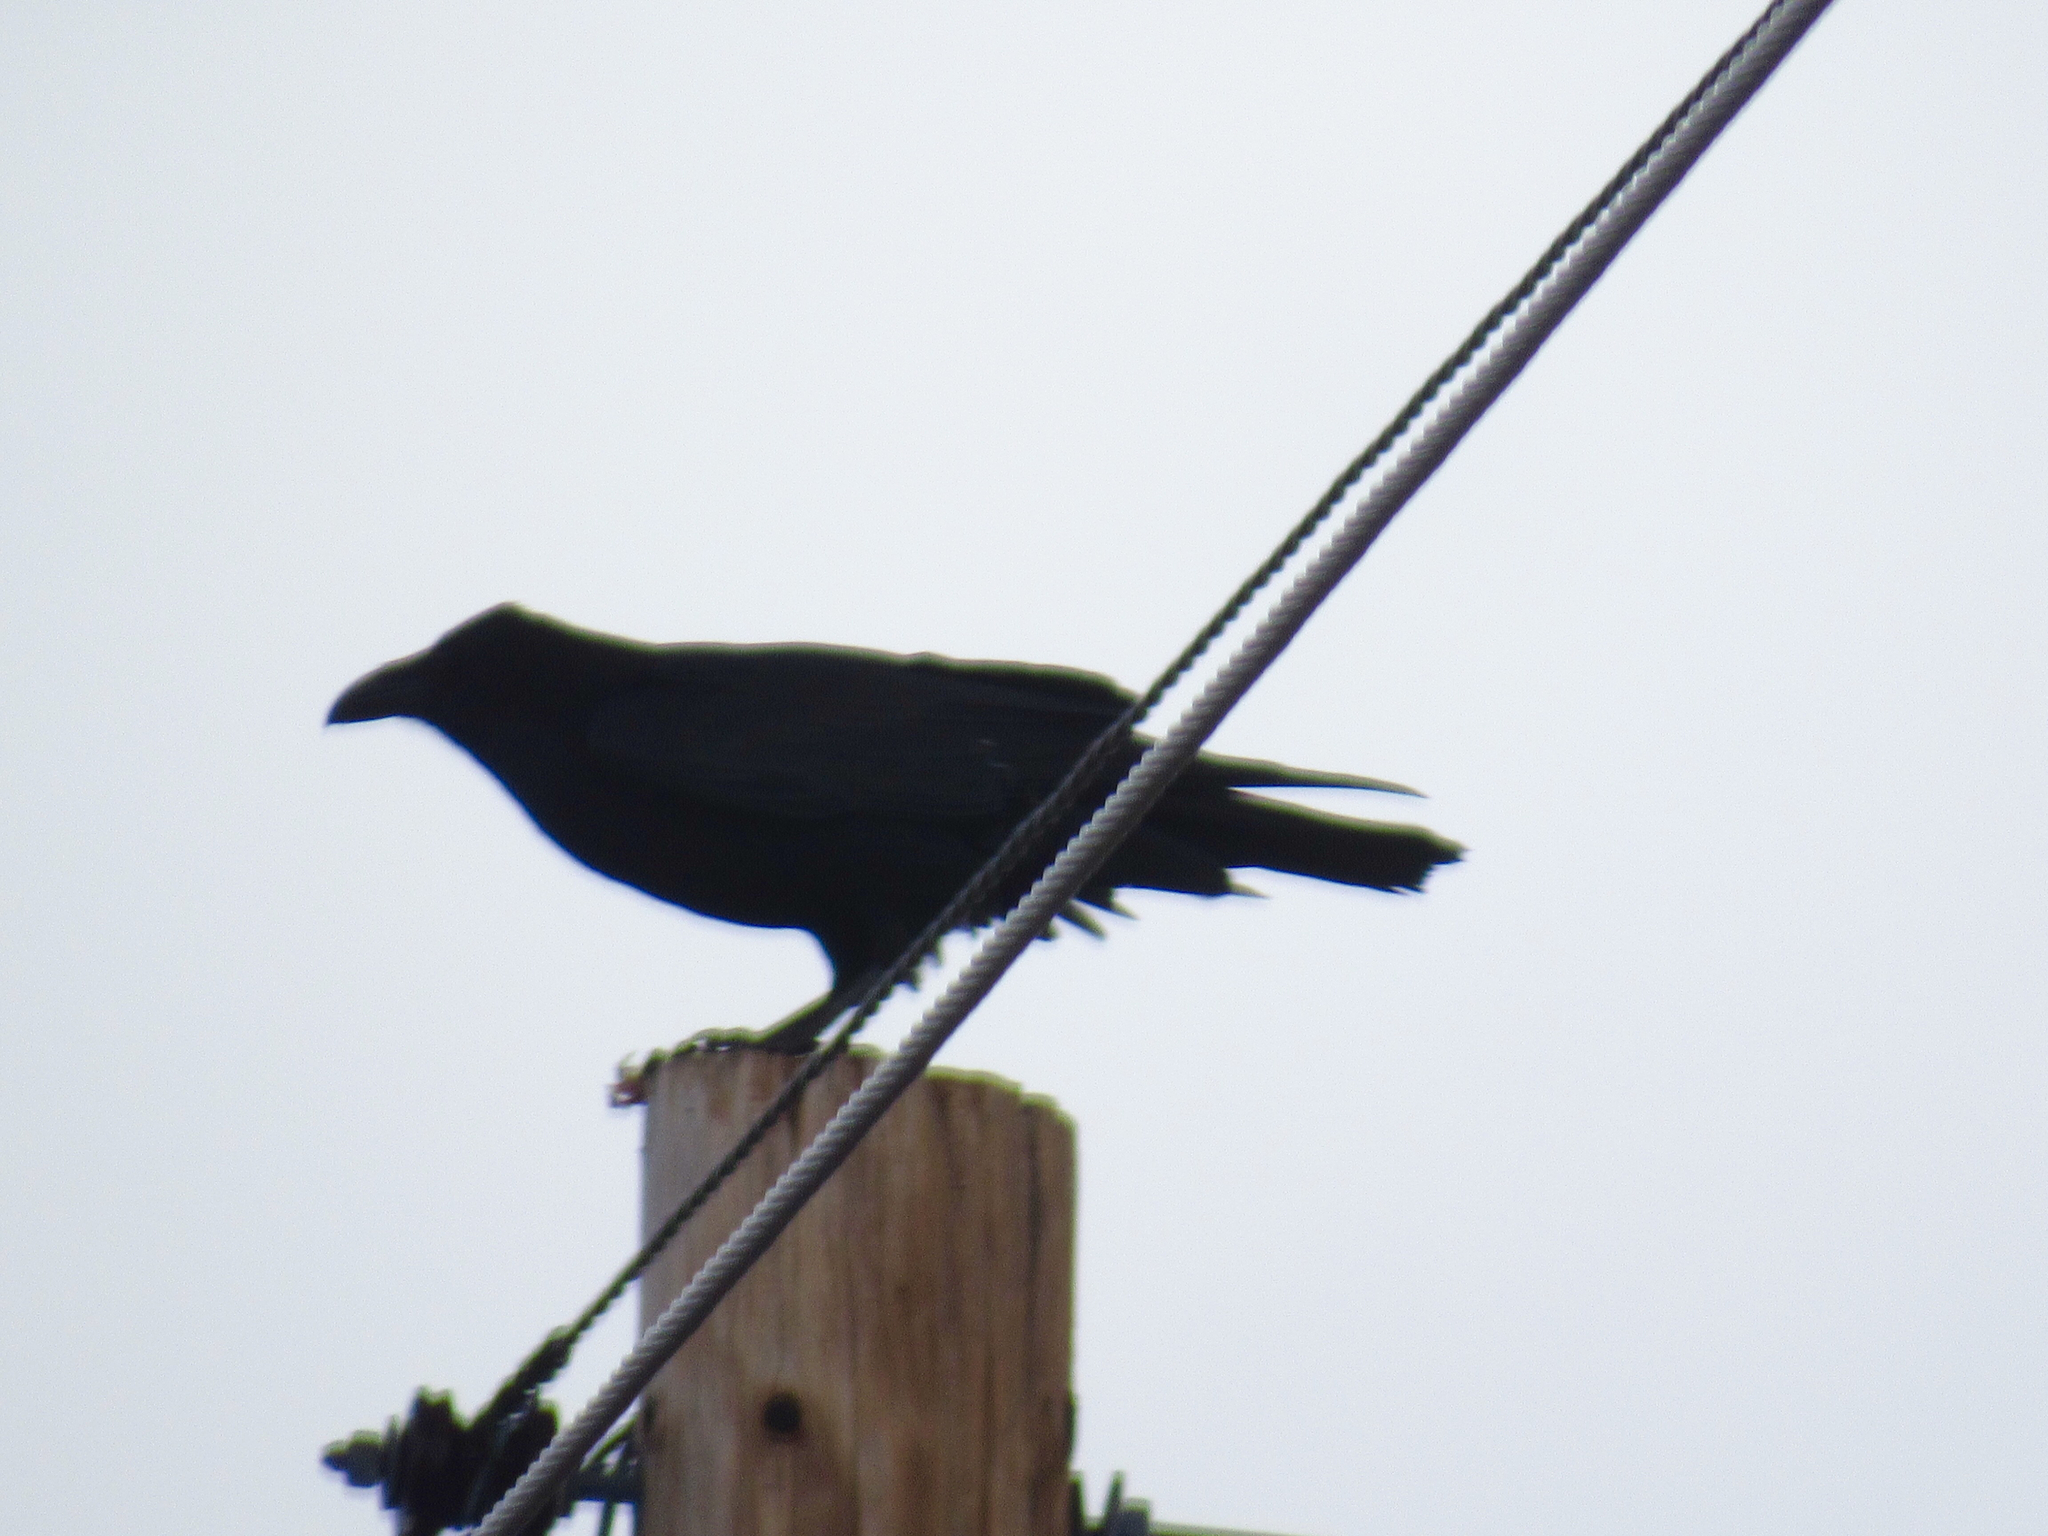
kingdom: Animalia
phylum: Chordata
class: Aves
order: Passeriformes
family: Corvidae
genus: Corvus
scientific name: Corvus corax
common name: Common raven
